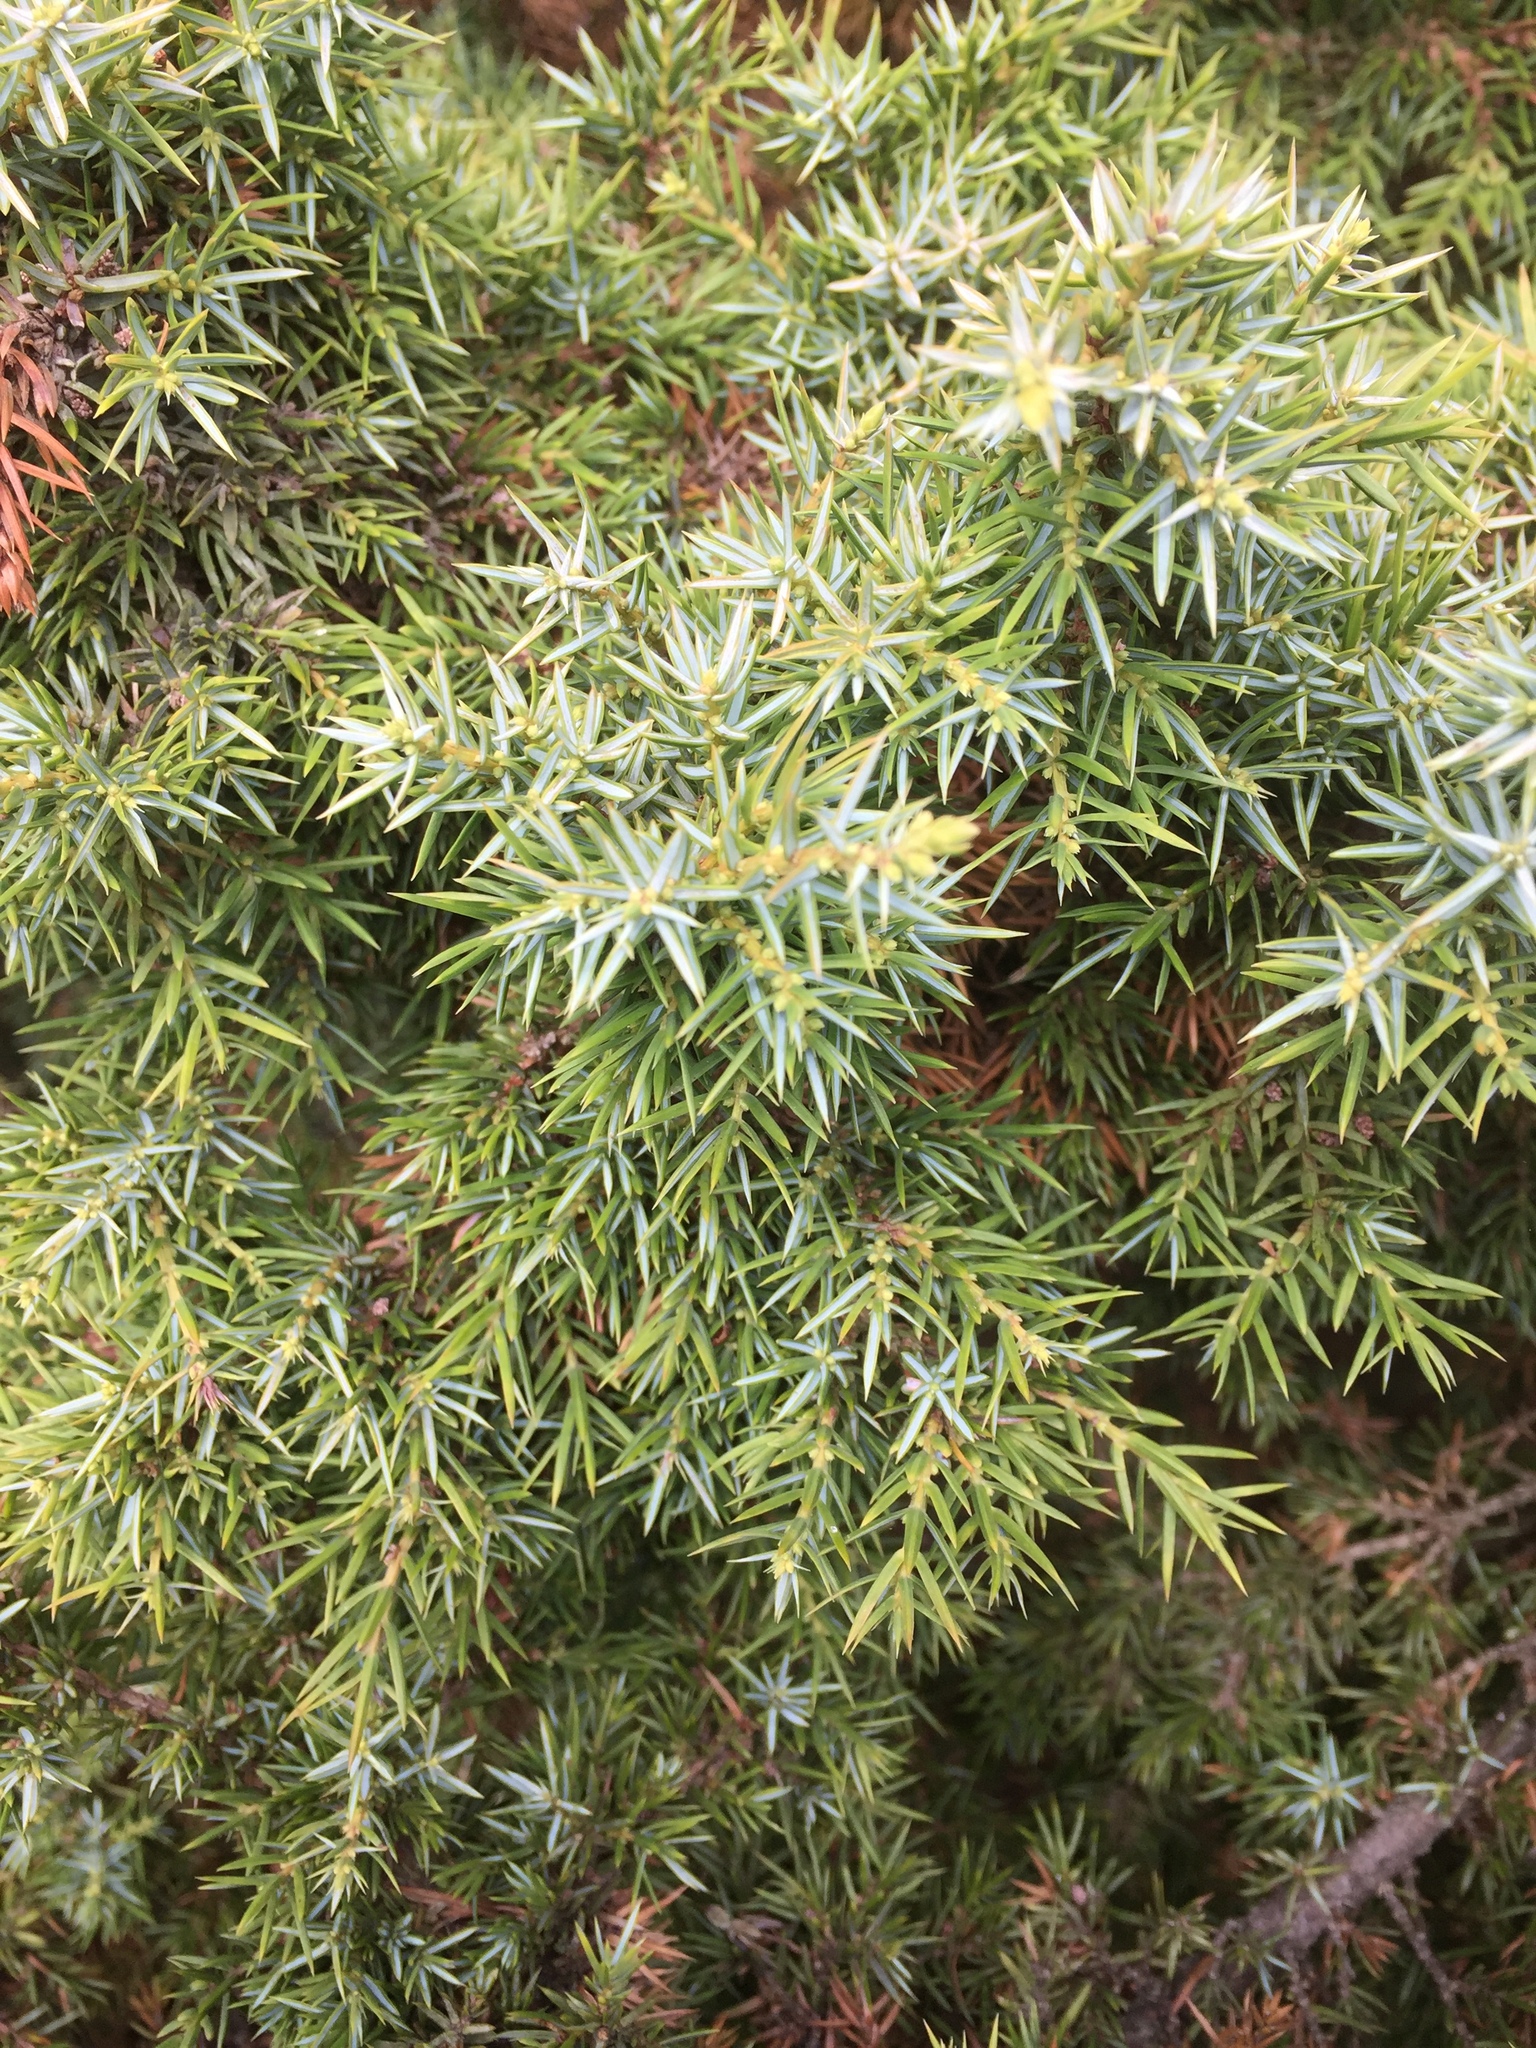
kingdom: Plantae
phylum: Tracheophyta
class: Pinopsida
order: Pinales
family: Cupressaceae
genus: Juniperus
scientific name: Juniperus communis
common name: Common juniper
